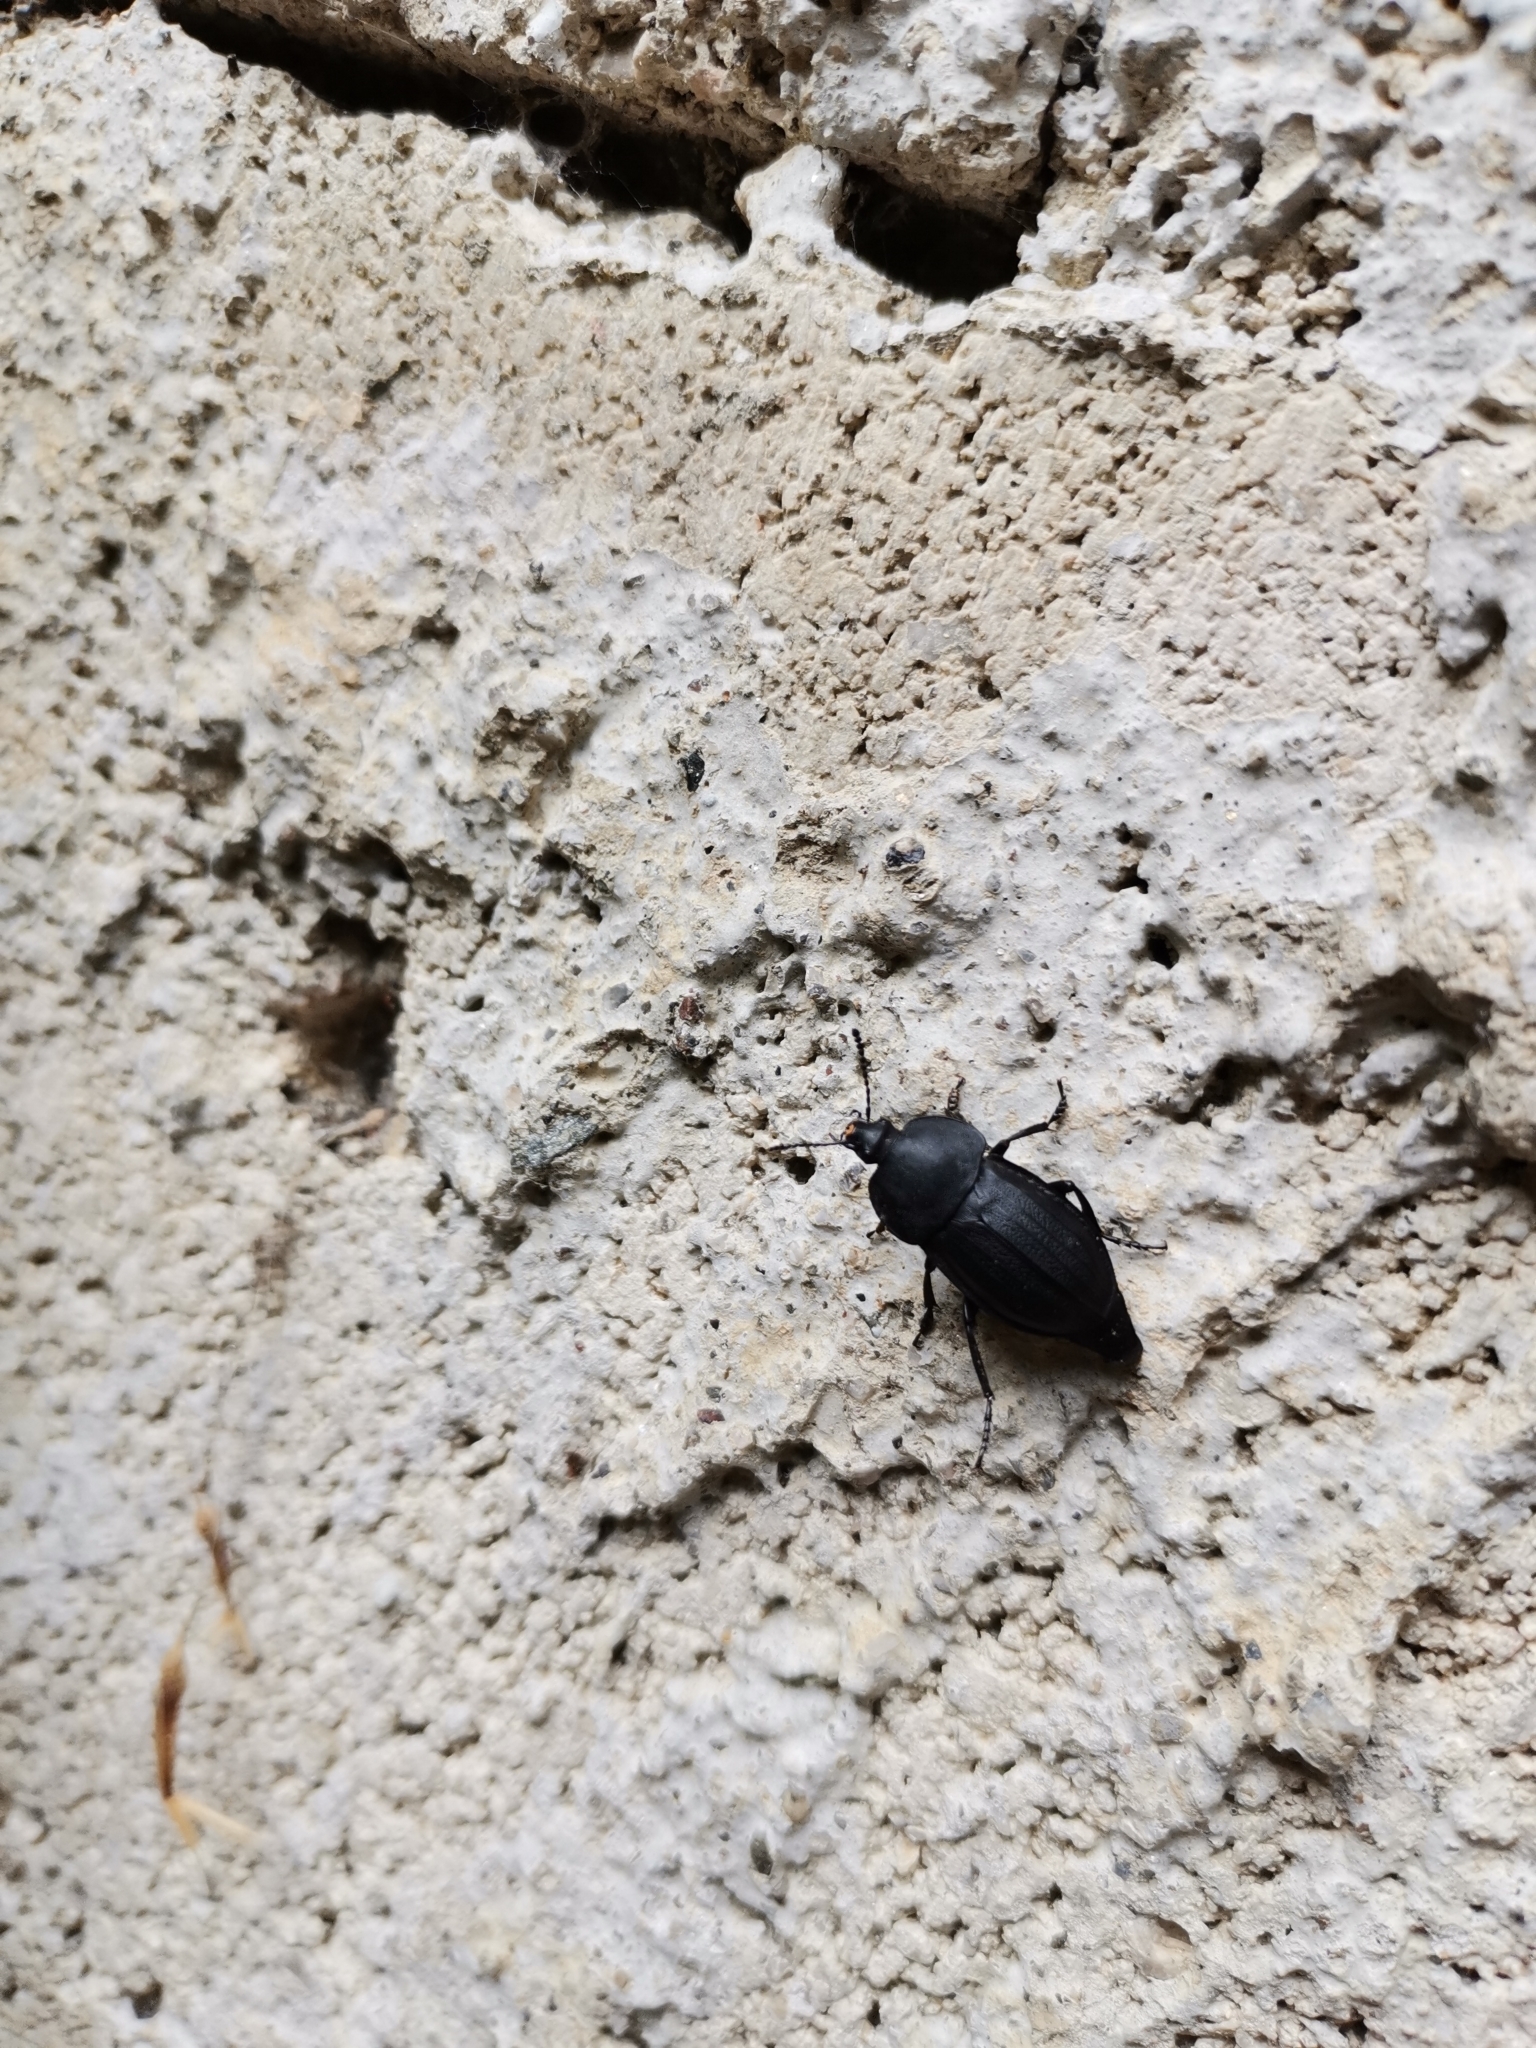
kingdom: Animalia
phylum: Arthropoda
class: Insecta
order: Coleoptera
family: Staphylinidae
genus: Silpha
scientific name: Silpha obscura
